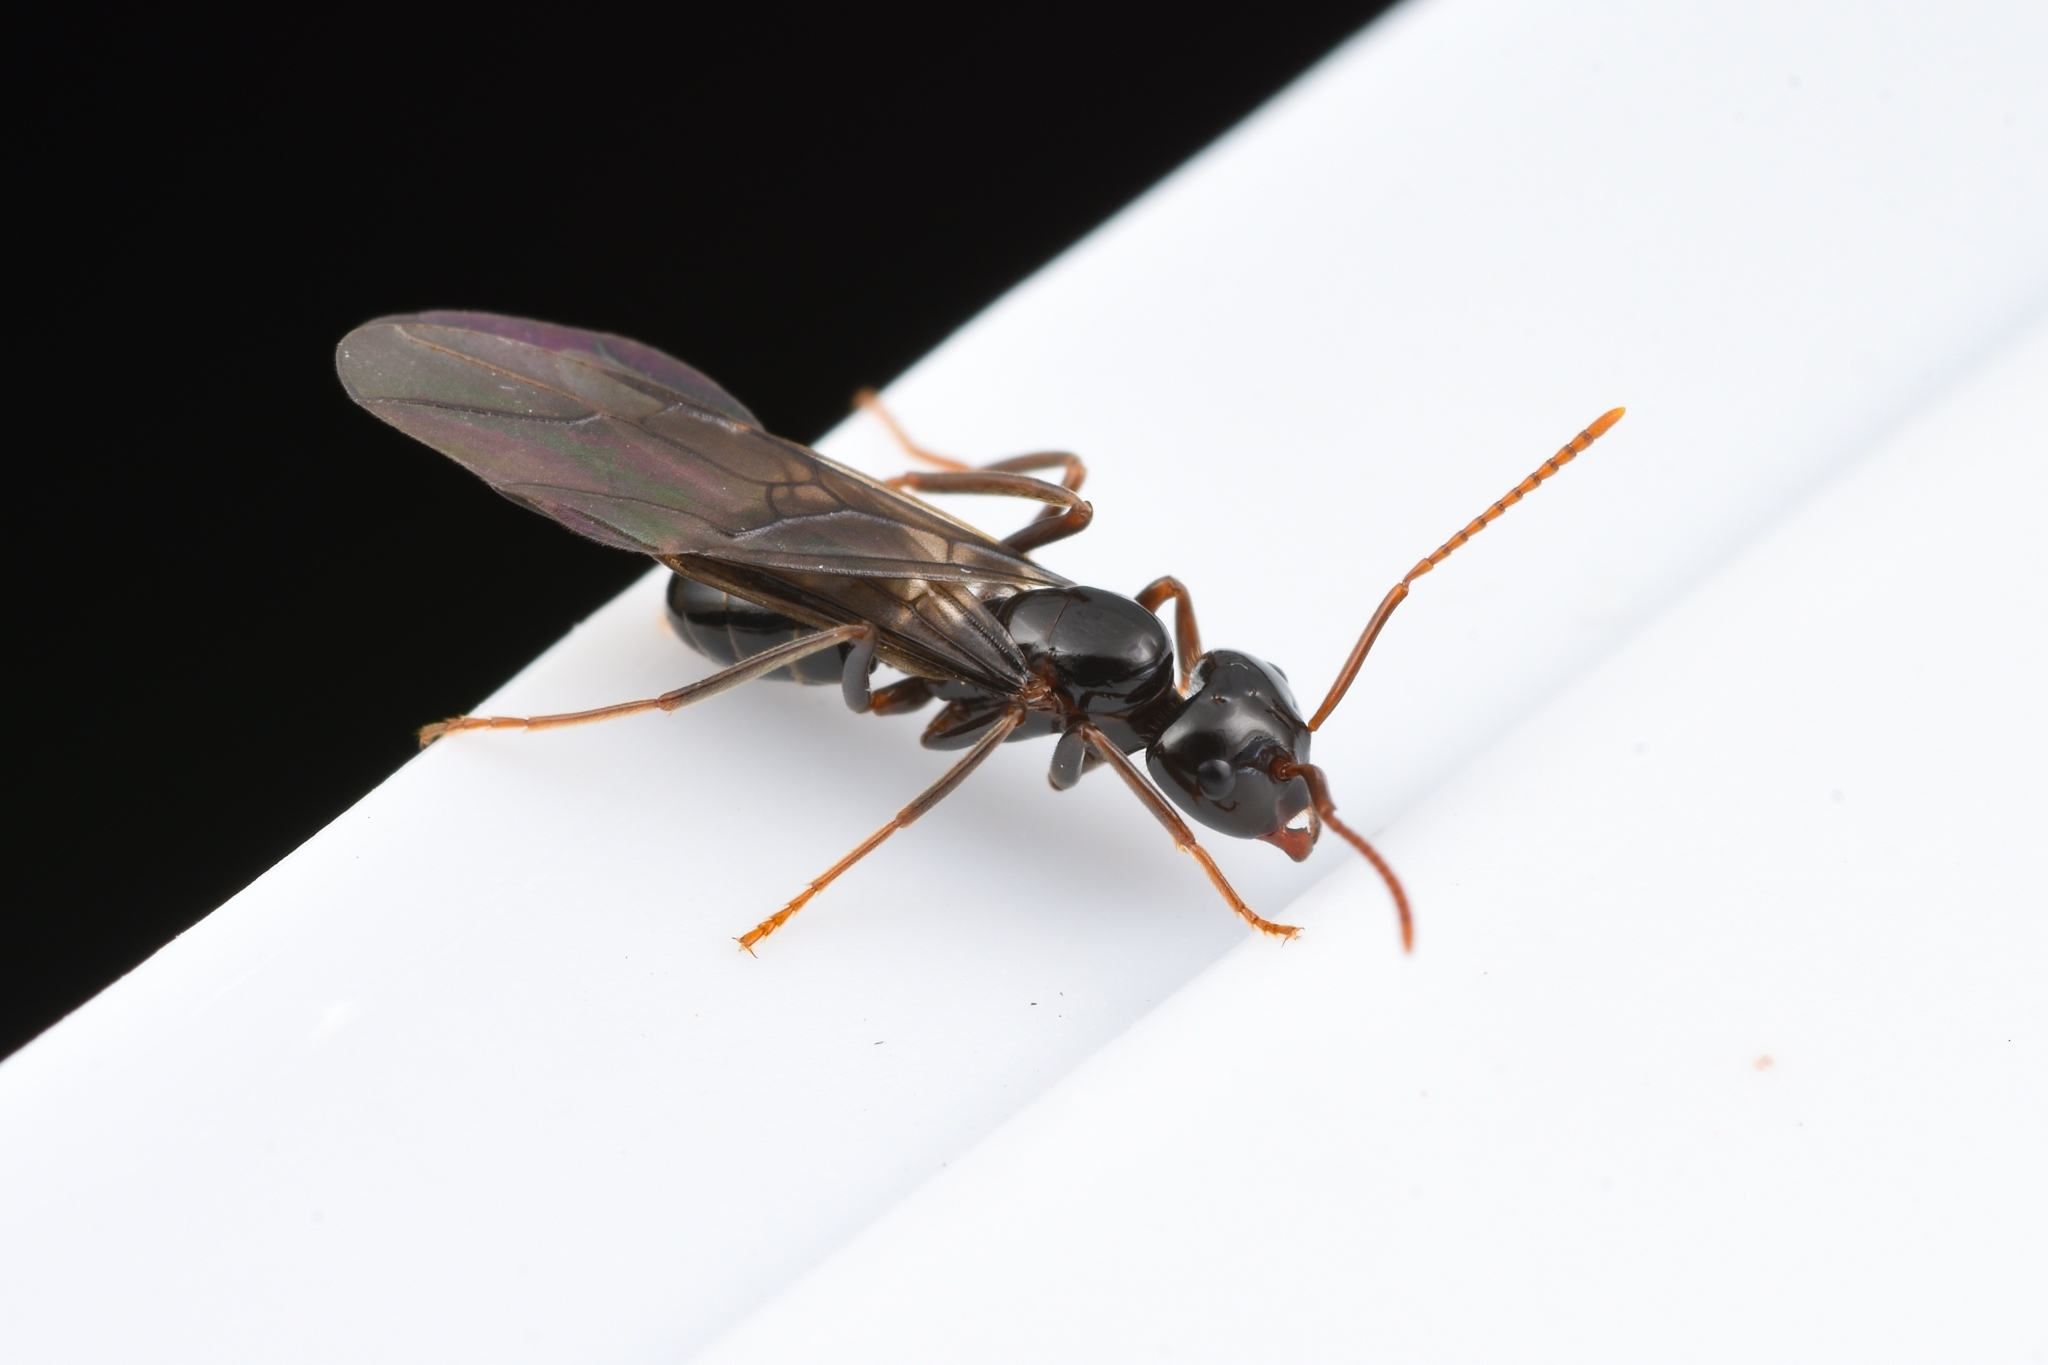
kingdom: Animalia
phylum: Arthropoda
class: Insecta
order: Hymenoptera
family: Formicidae
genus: Lasius
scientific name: Lasius capitatus
